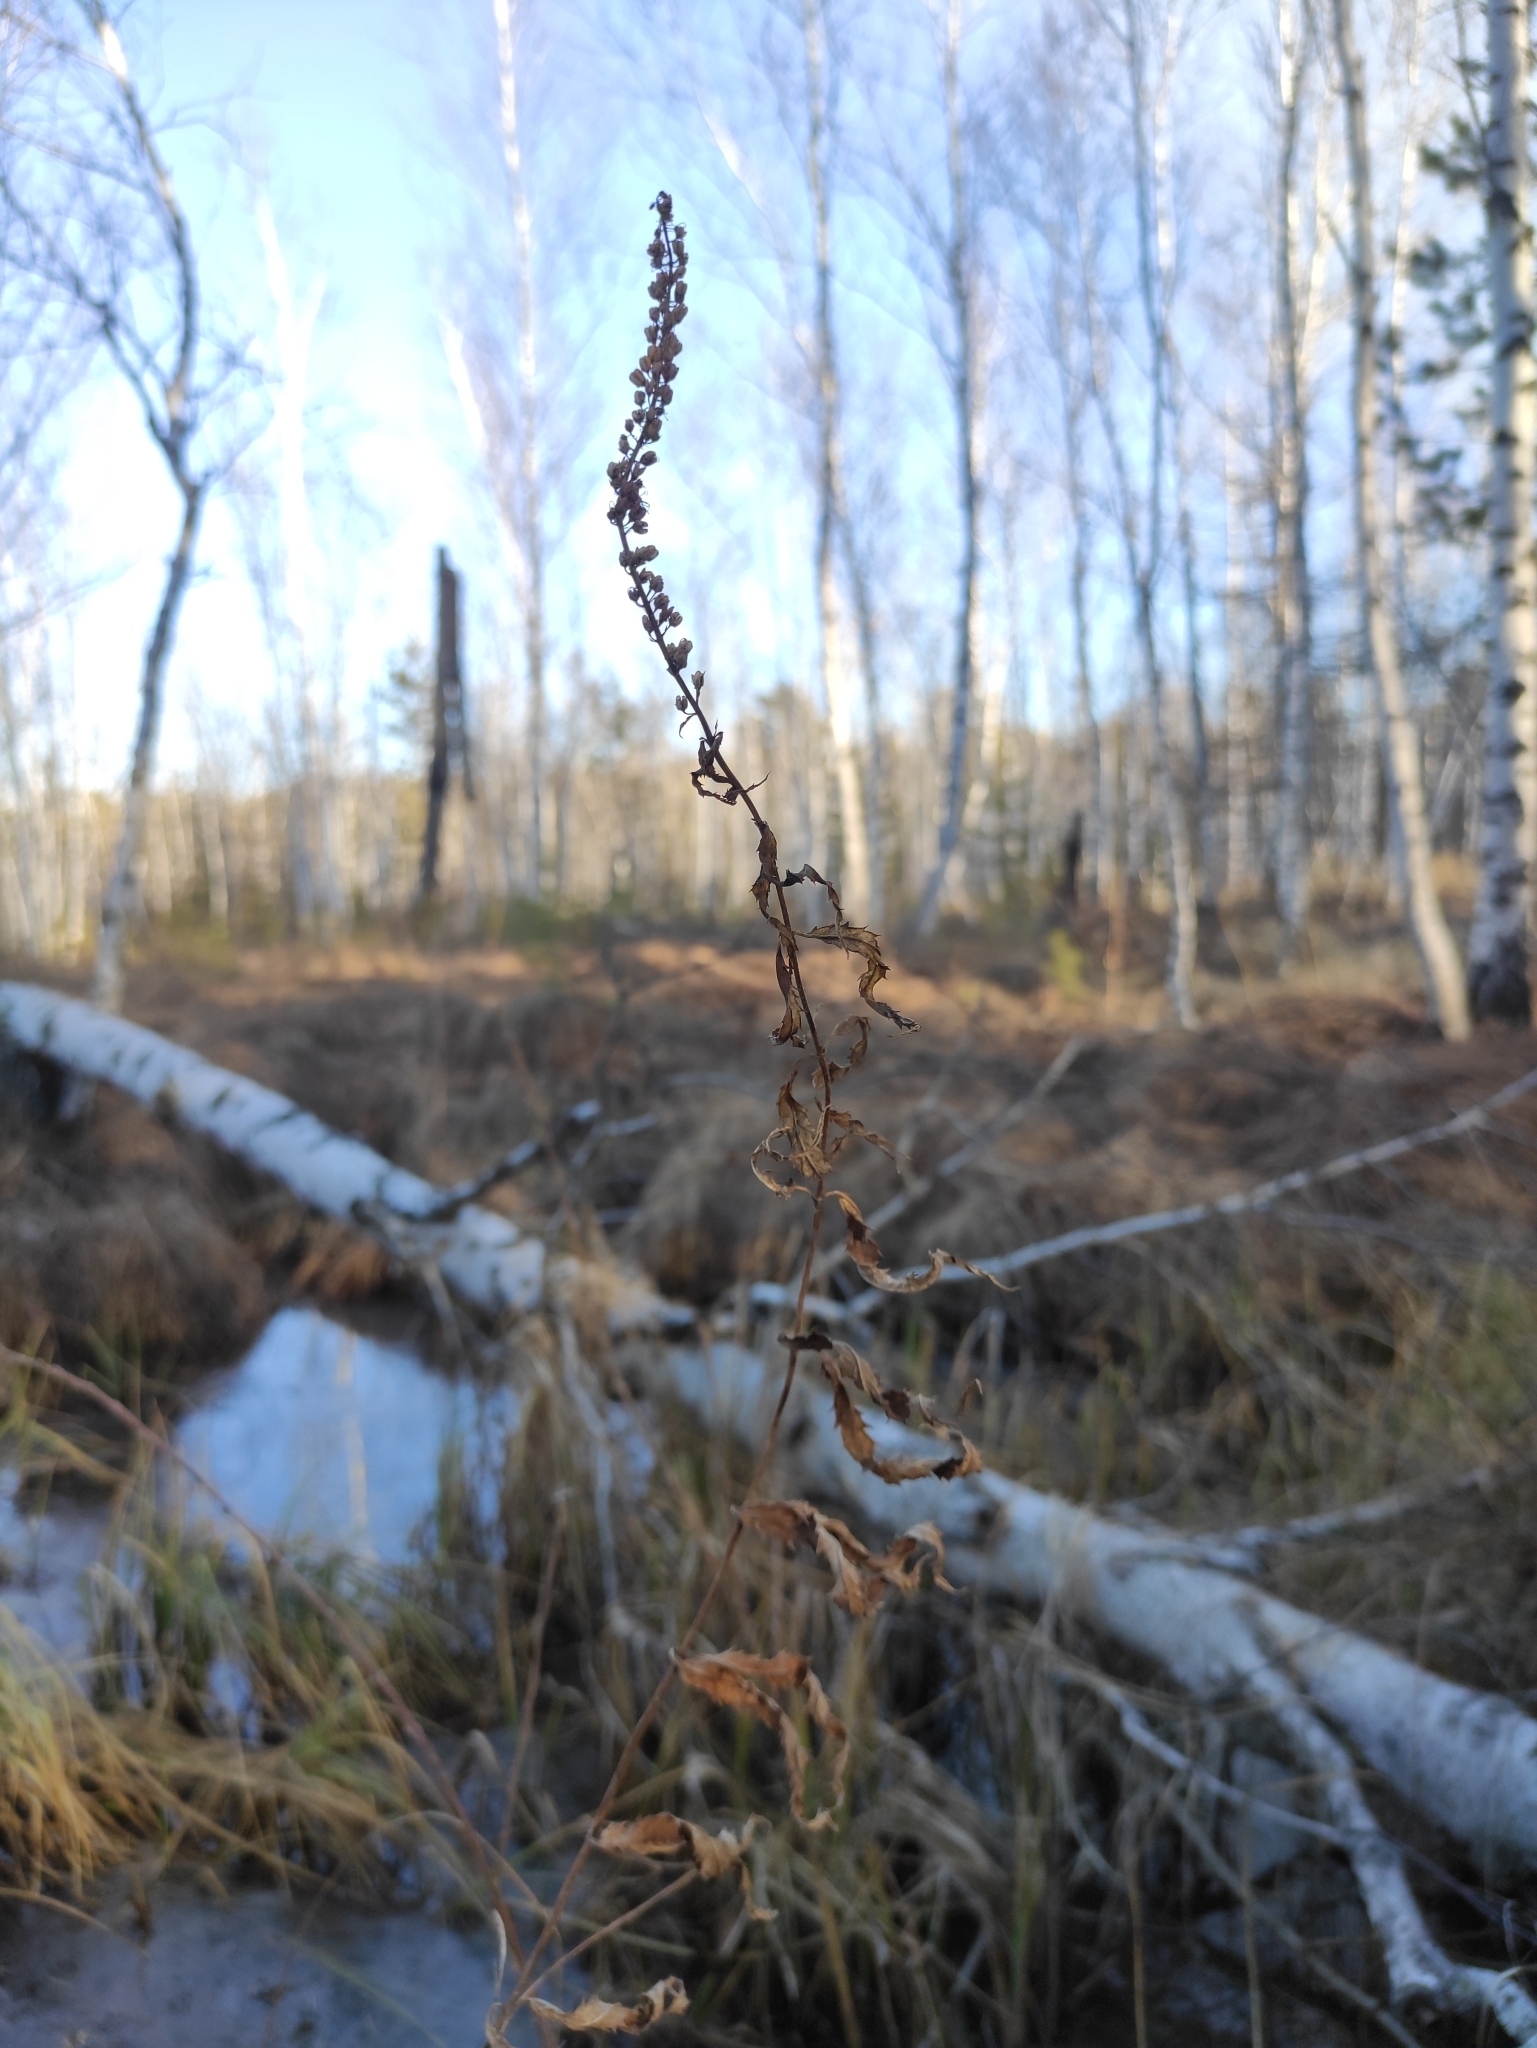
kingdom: Plantae
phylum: Tracheophyta
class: Magnoliopsida
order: Lamiales
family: Plantaginaceae
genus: Veronica
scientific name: Veronica longifolia
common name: Garden speedwell
